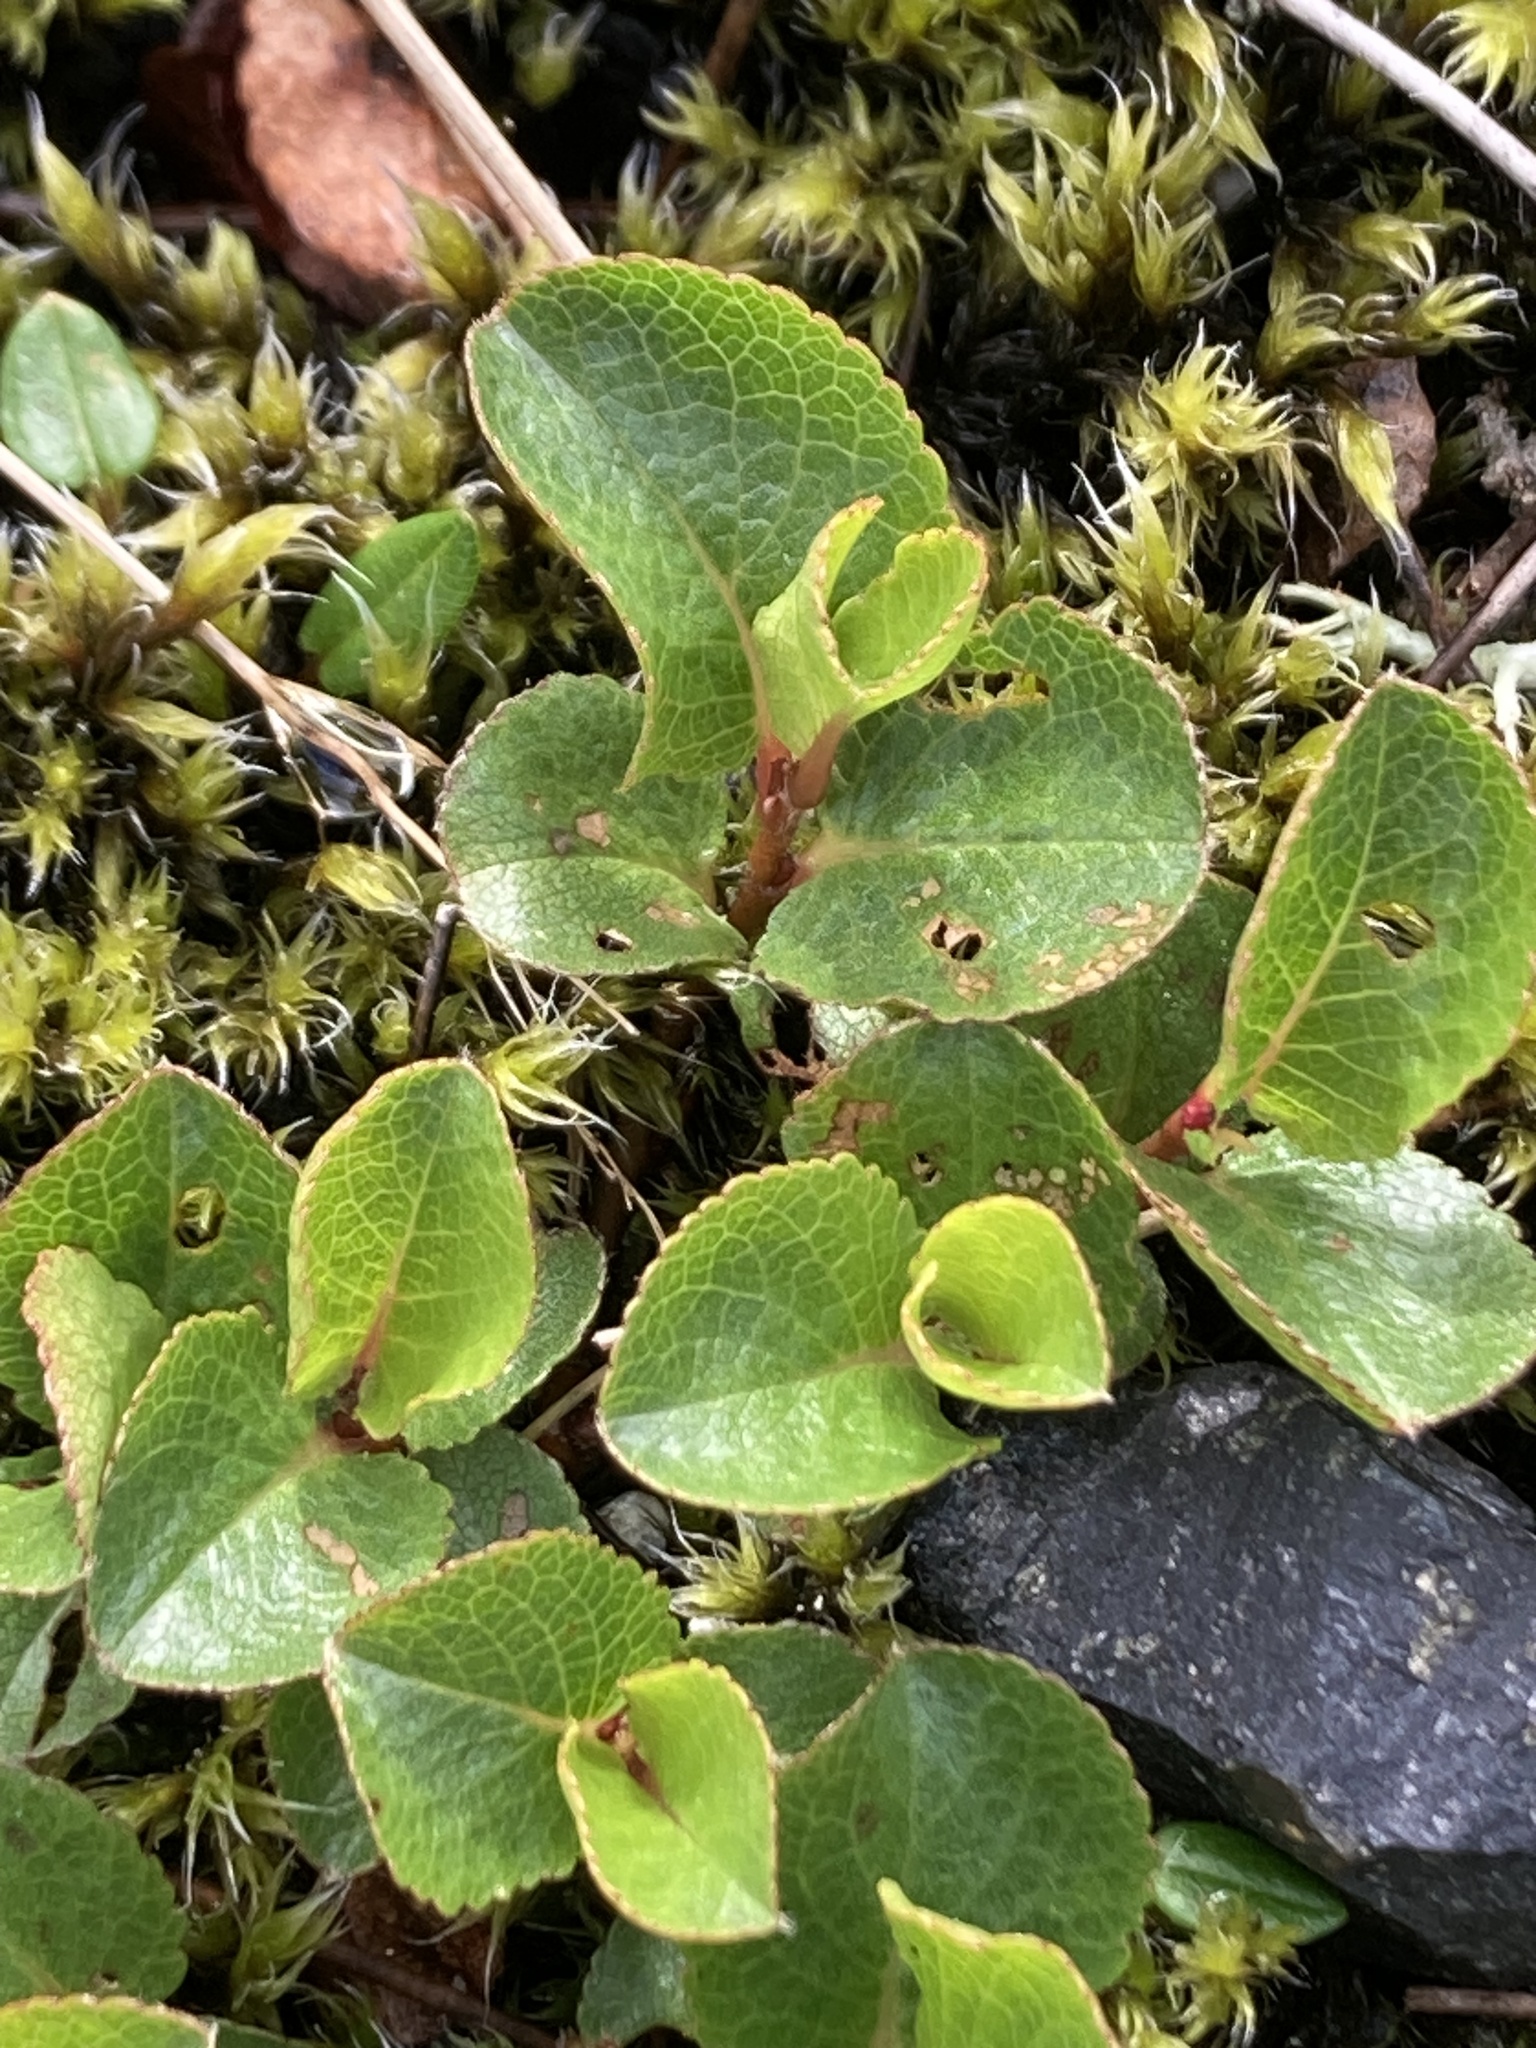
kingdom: Plantae
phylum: Tracheophyta
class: Magnoliopsida
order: Malpighiales
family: Salicaceae
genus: Salix
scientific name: Salix herbacea
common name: Dwarf willow
